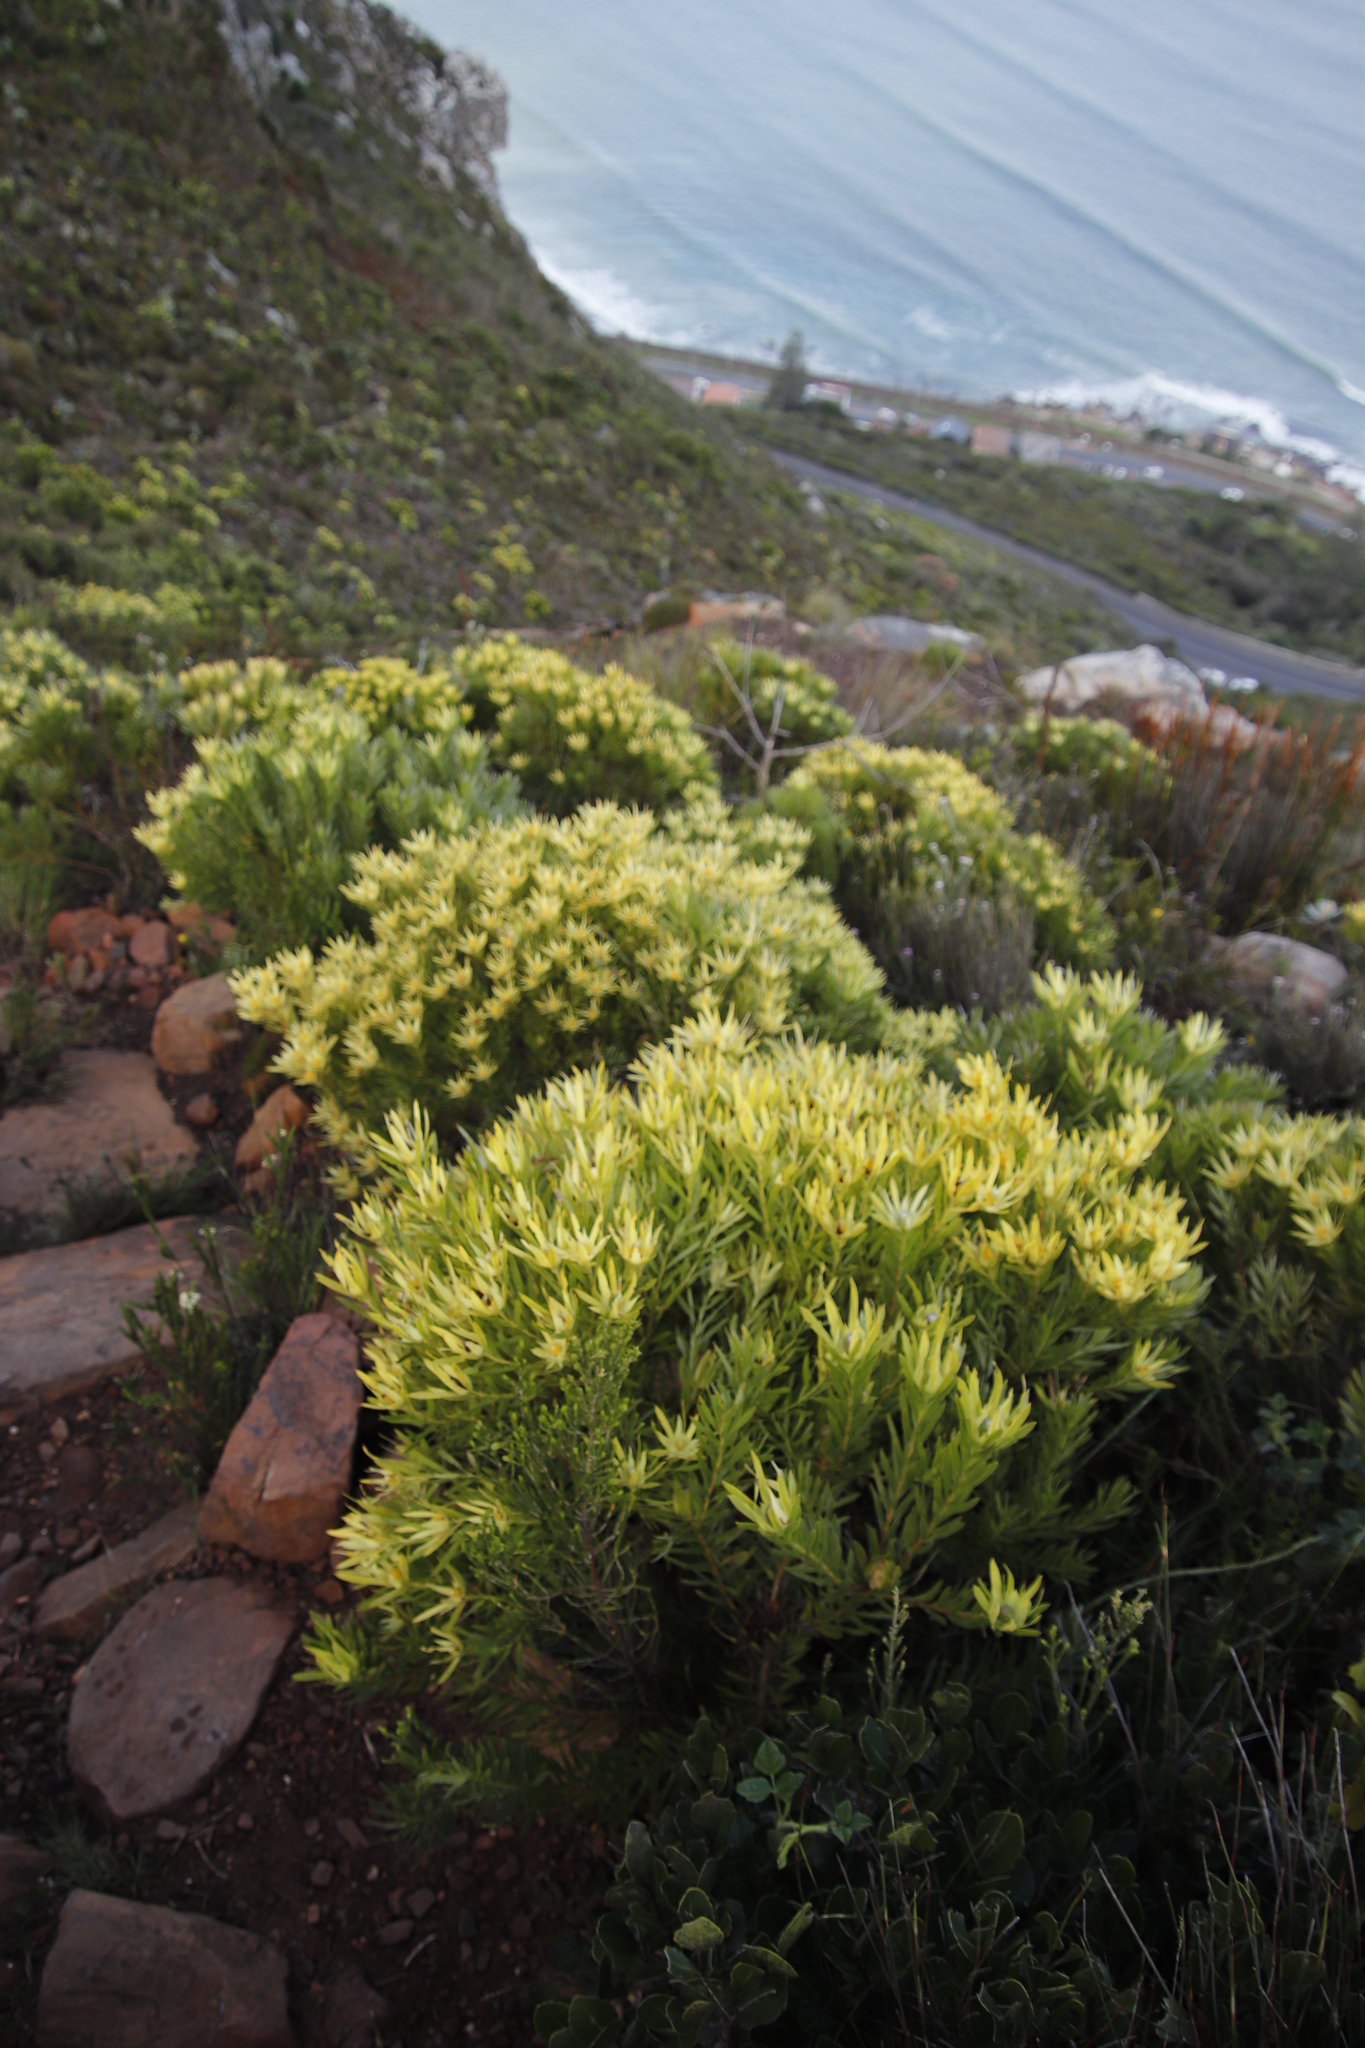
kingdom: Plantae
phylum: Tracheophyta
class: Magnoliopsida
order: Proteales
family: Proteaceae
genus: Leucadendron
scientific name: Leucadendron xanthoconus
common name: Sickle-leaf conebush
